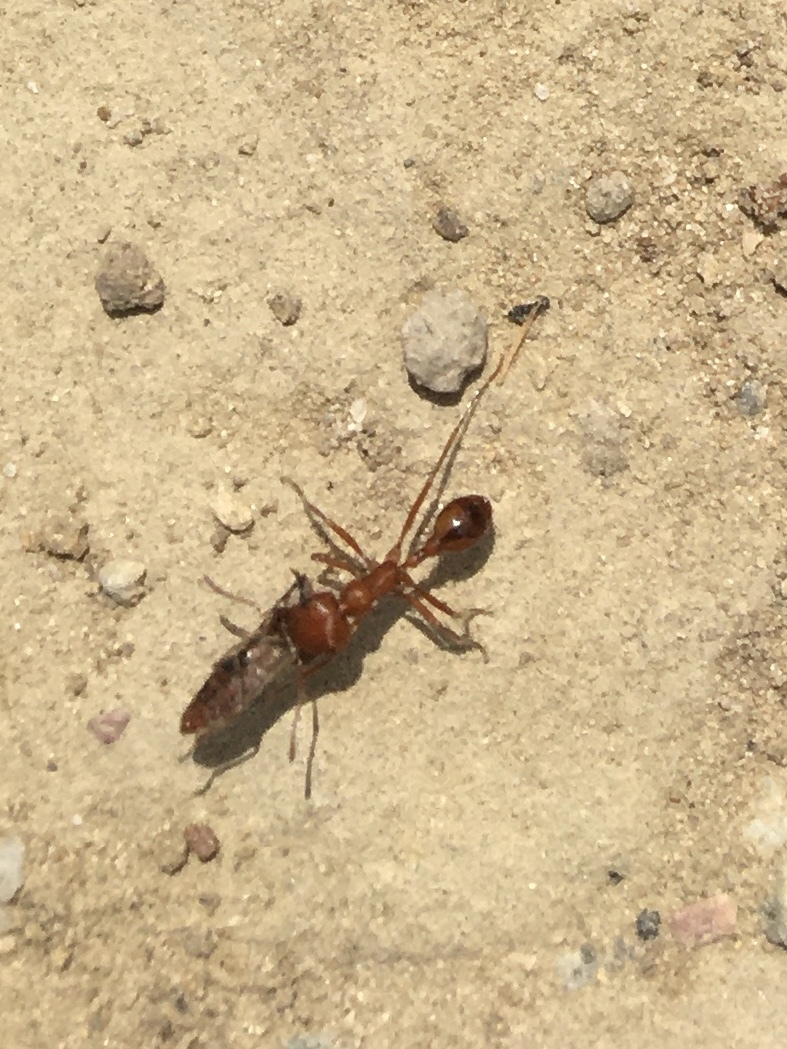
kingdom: Animalia
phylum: Arthropoda
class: Insecta
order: Hymenoptera
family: Formicidae
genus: Pogonomyrmex
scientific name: Pogonomyrmex californicus
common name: California harvester ant
